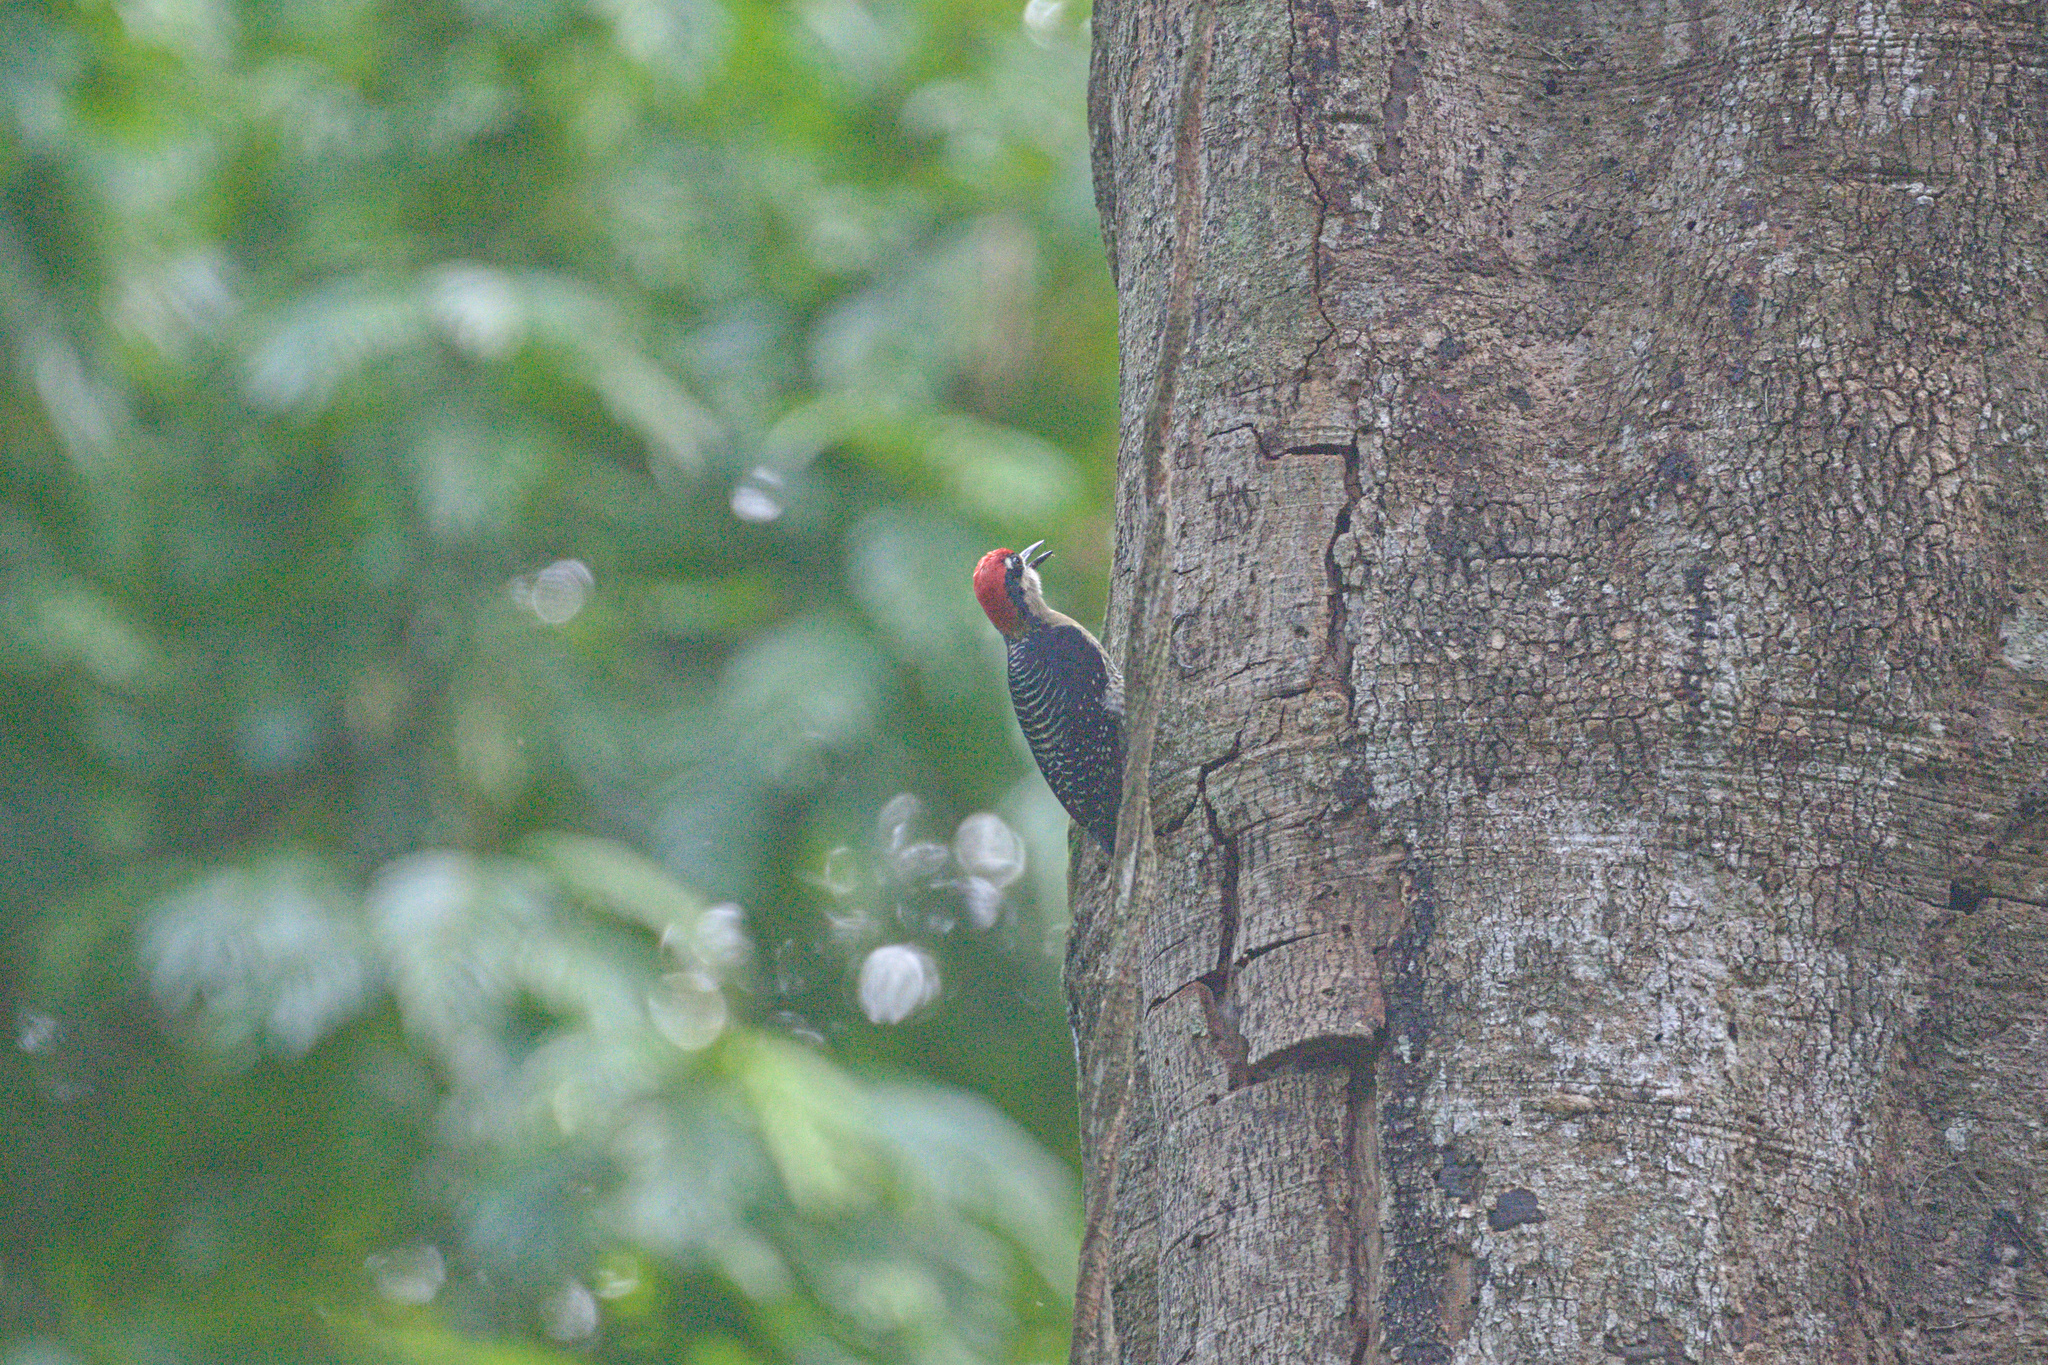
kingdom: Animalia
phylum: Chordata
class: Aves
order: Piciformes
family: Picidae
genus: Melanerpes
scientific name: Melanerpes pucherani
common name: Black-cheeked woodpecker
